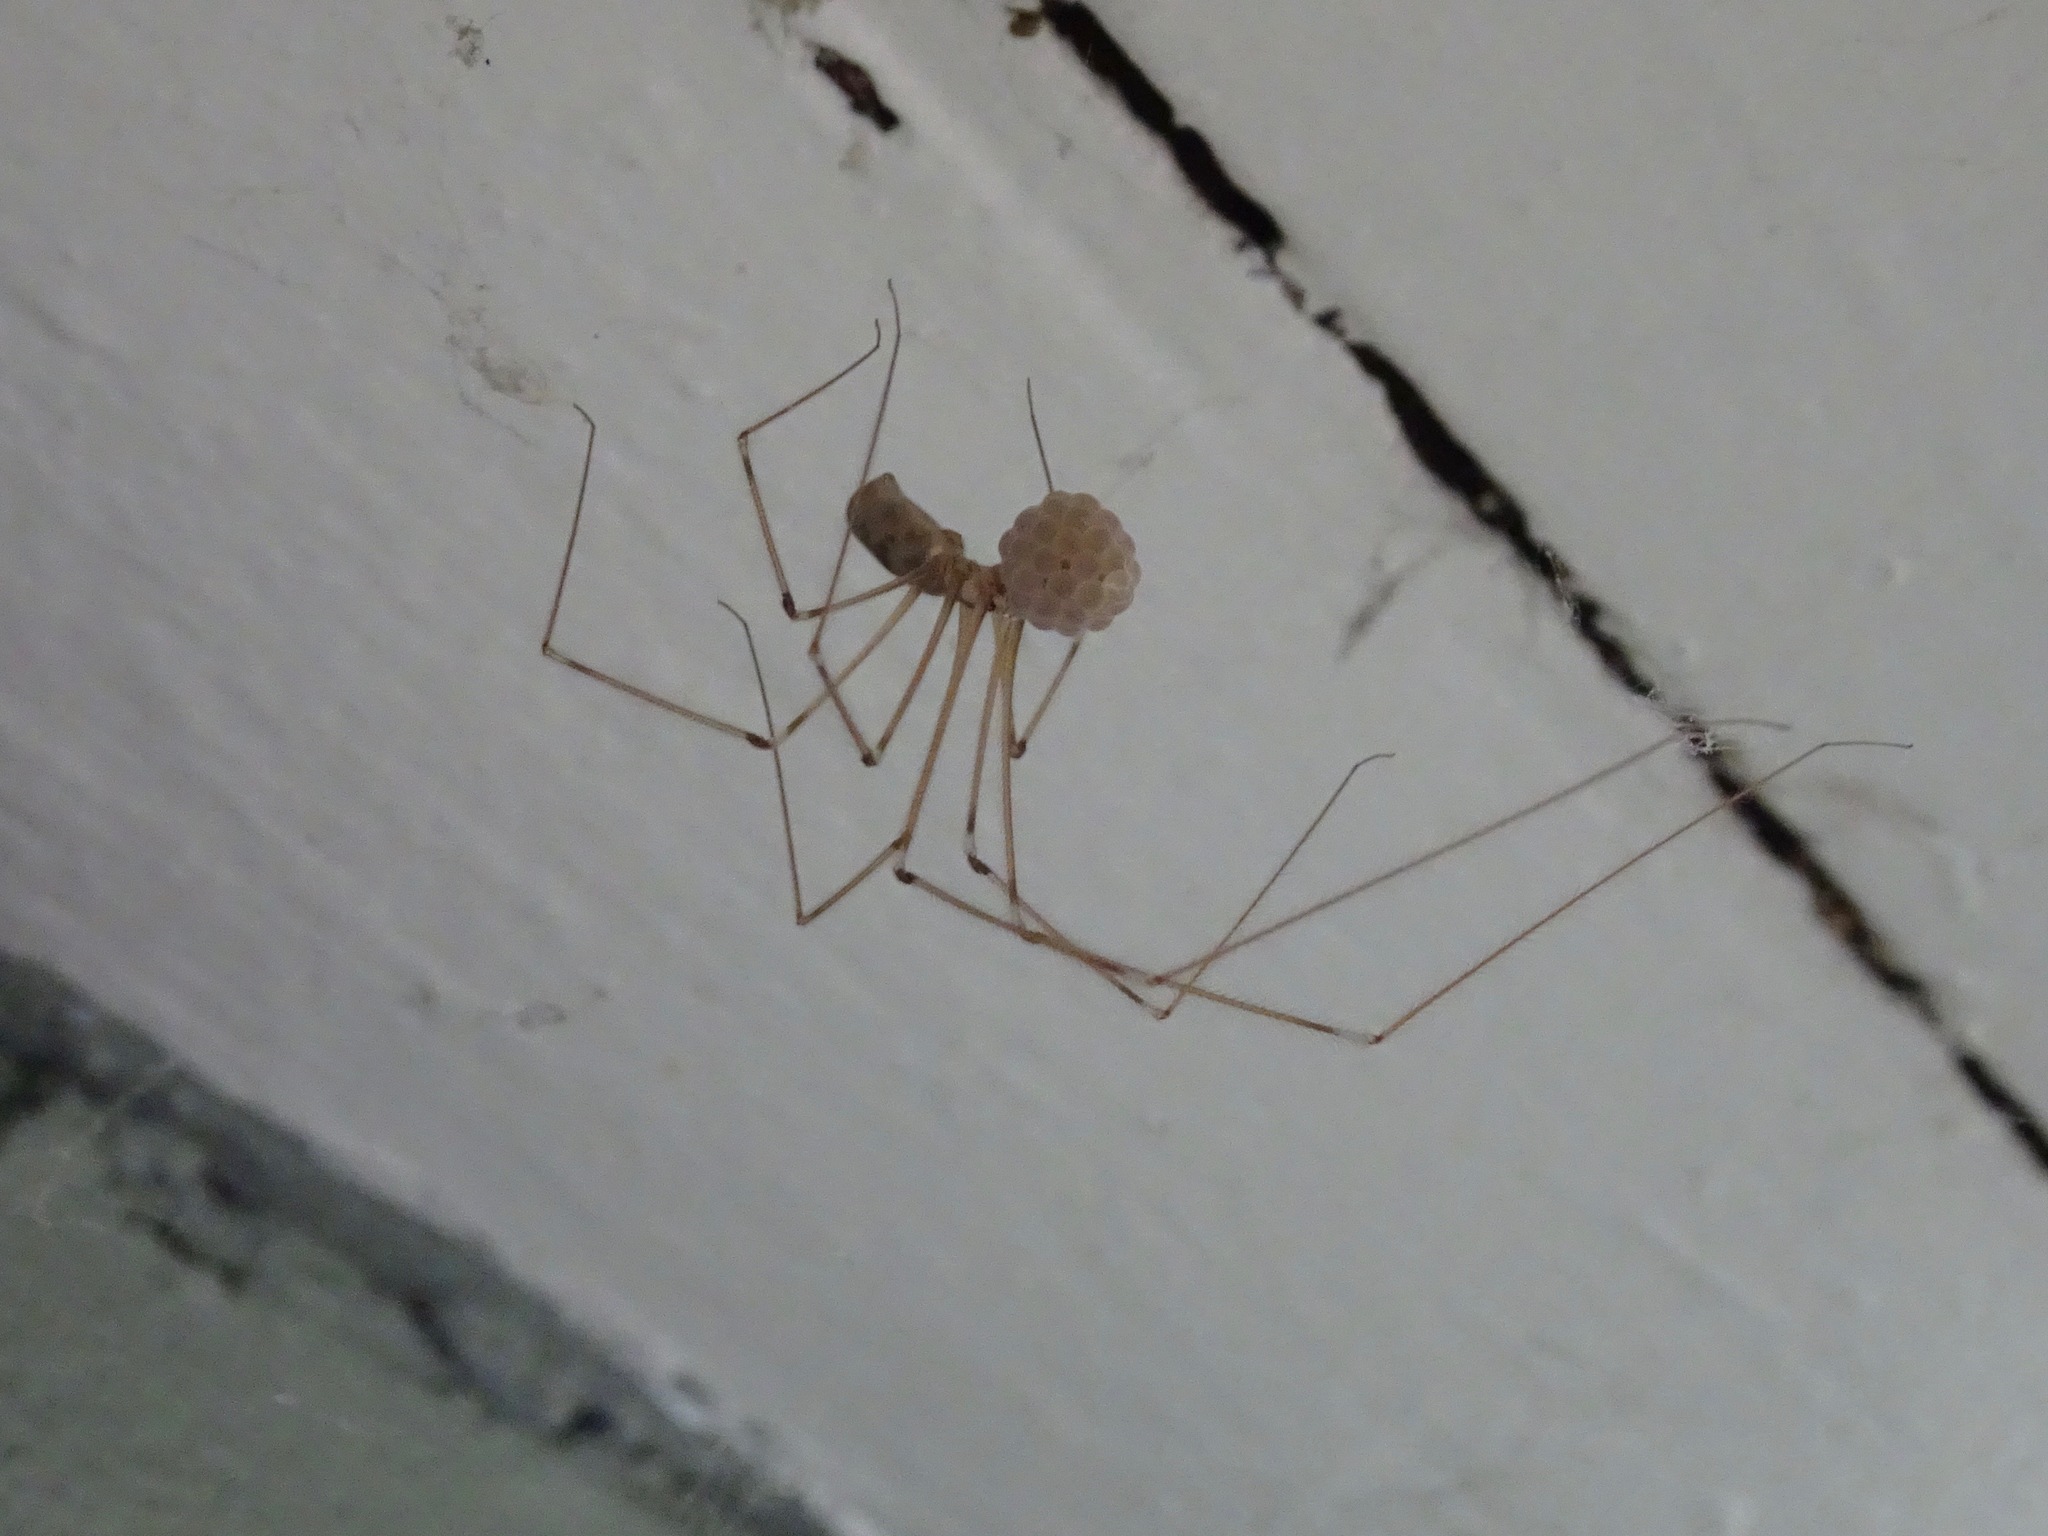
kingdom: Animalia
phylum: Arthropoda
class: Arachnida
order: Araneae
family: Pholcidae
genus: Pholcus
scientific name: Pholcus phalangioides
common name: Longbodied cellar spider
